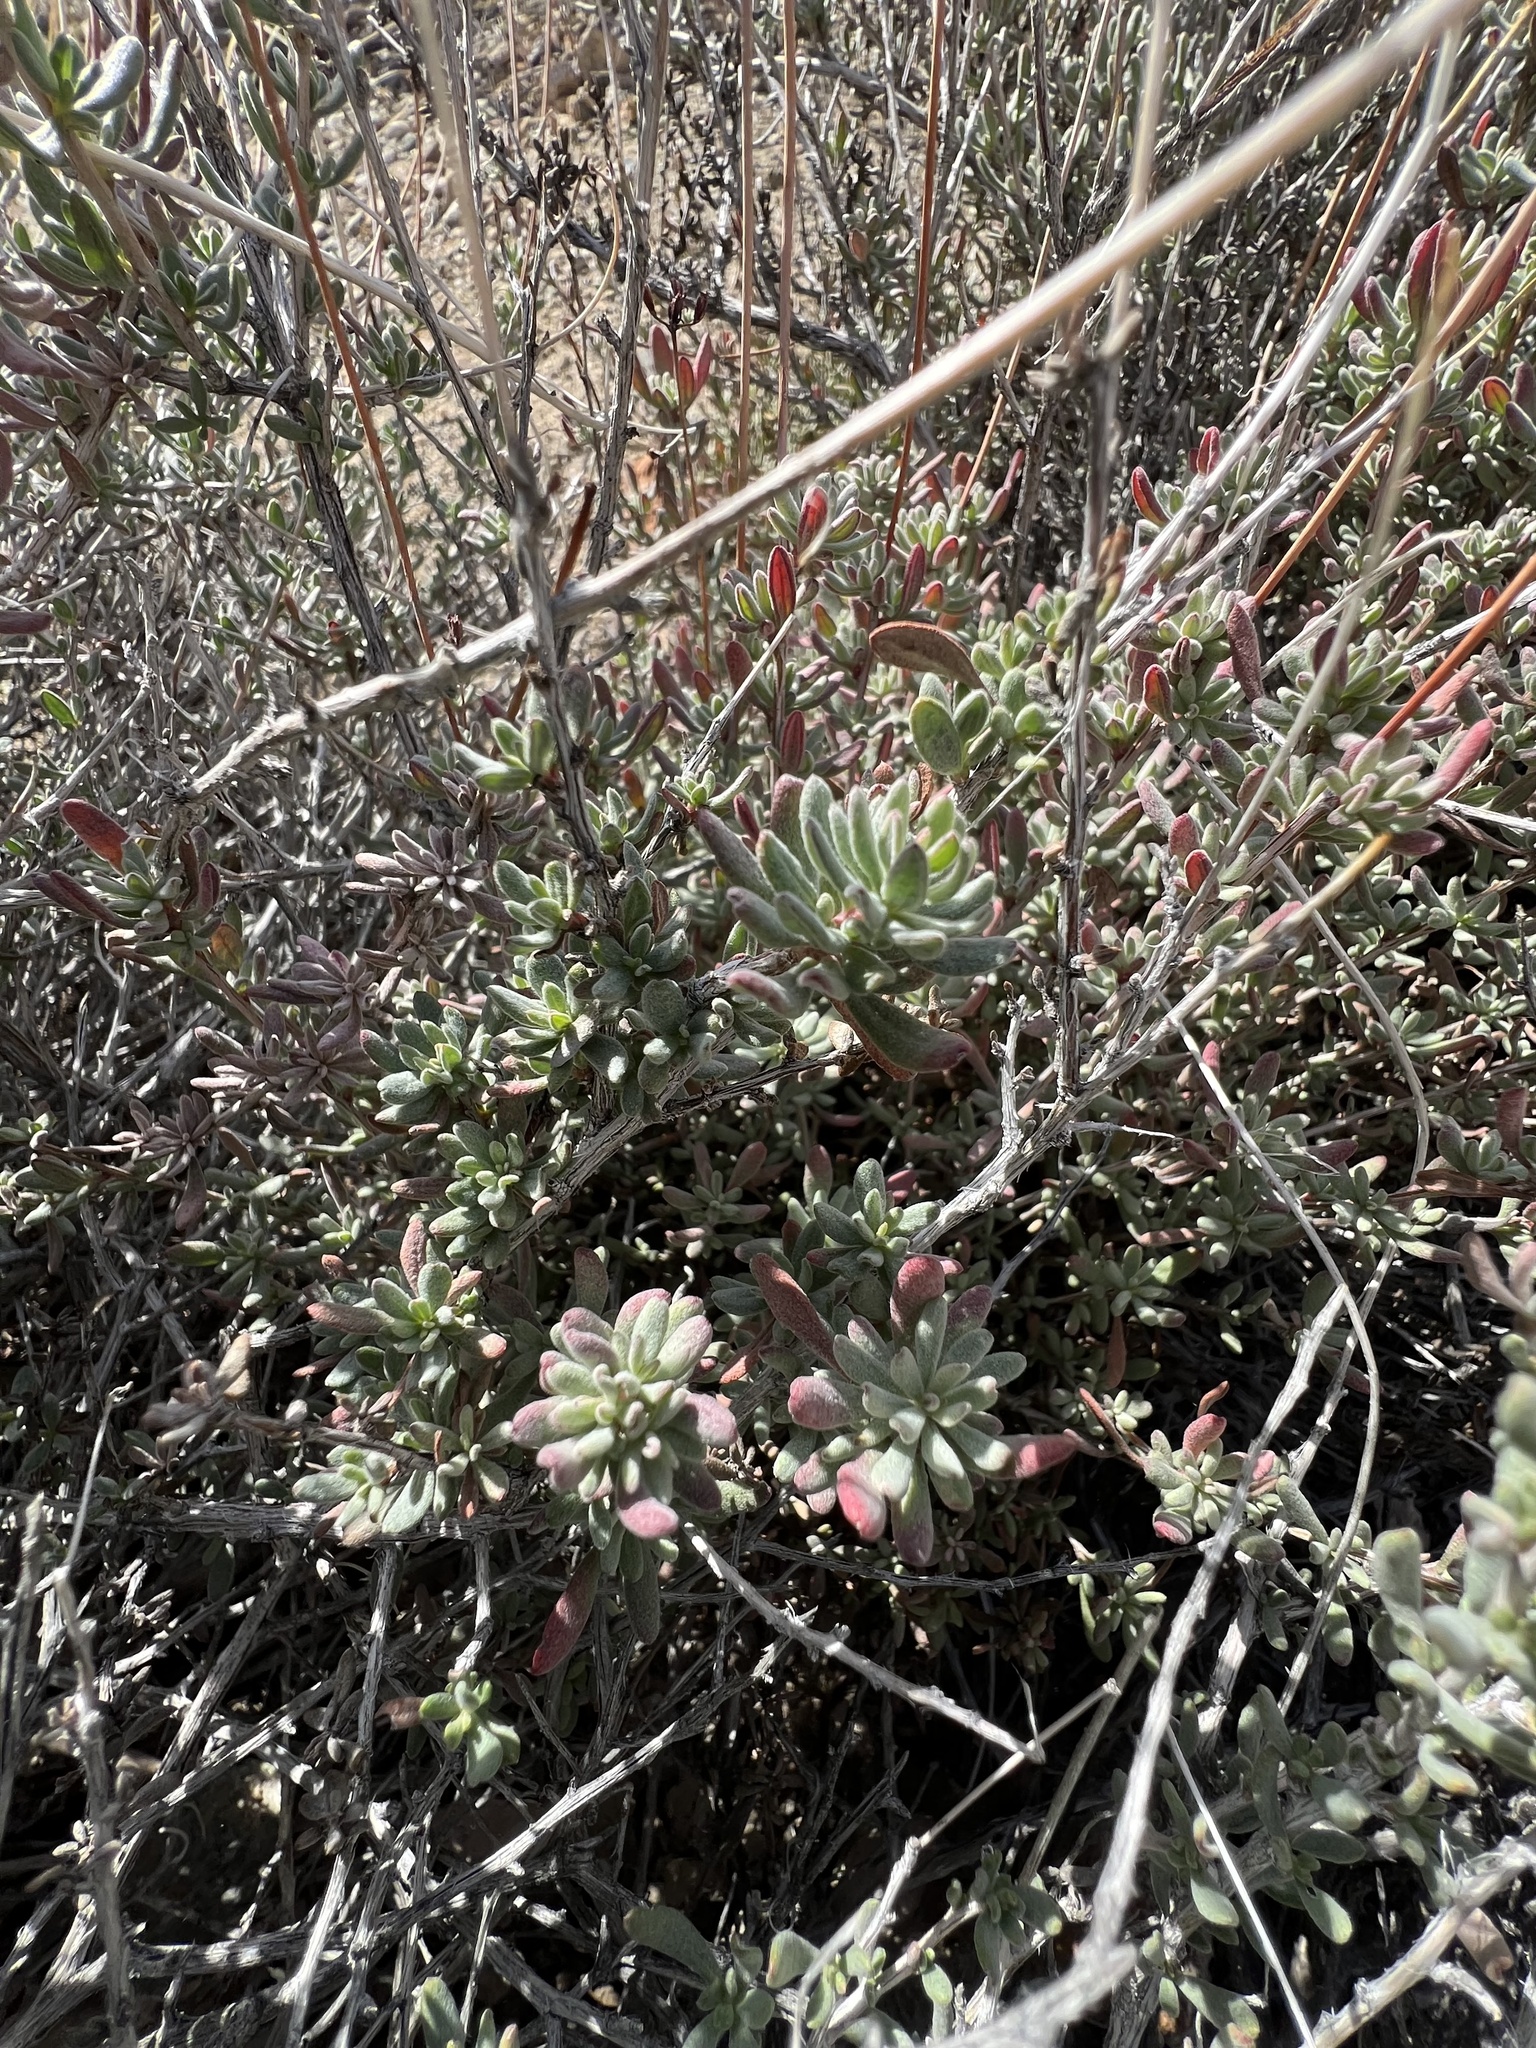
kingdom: Plantae
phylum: Tracheophyta
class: Magnoliopsida
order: Caryophyllales
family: Polygonaceae
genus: Eriogonum
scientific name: Eriogonum fasciculatum
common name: California wild buckwheat
